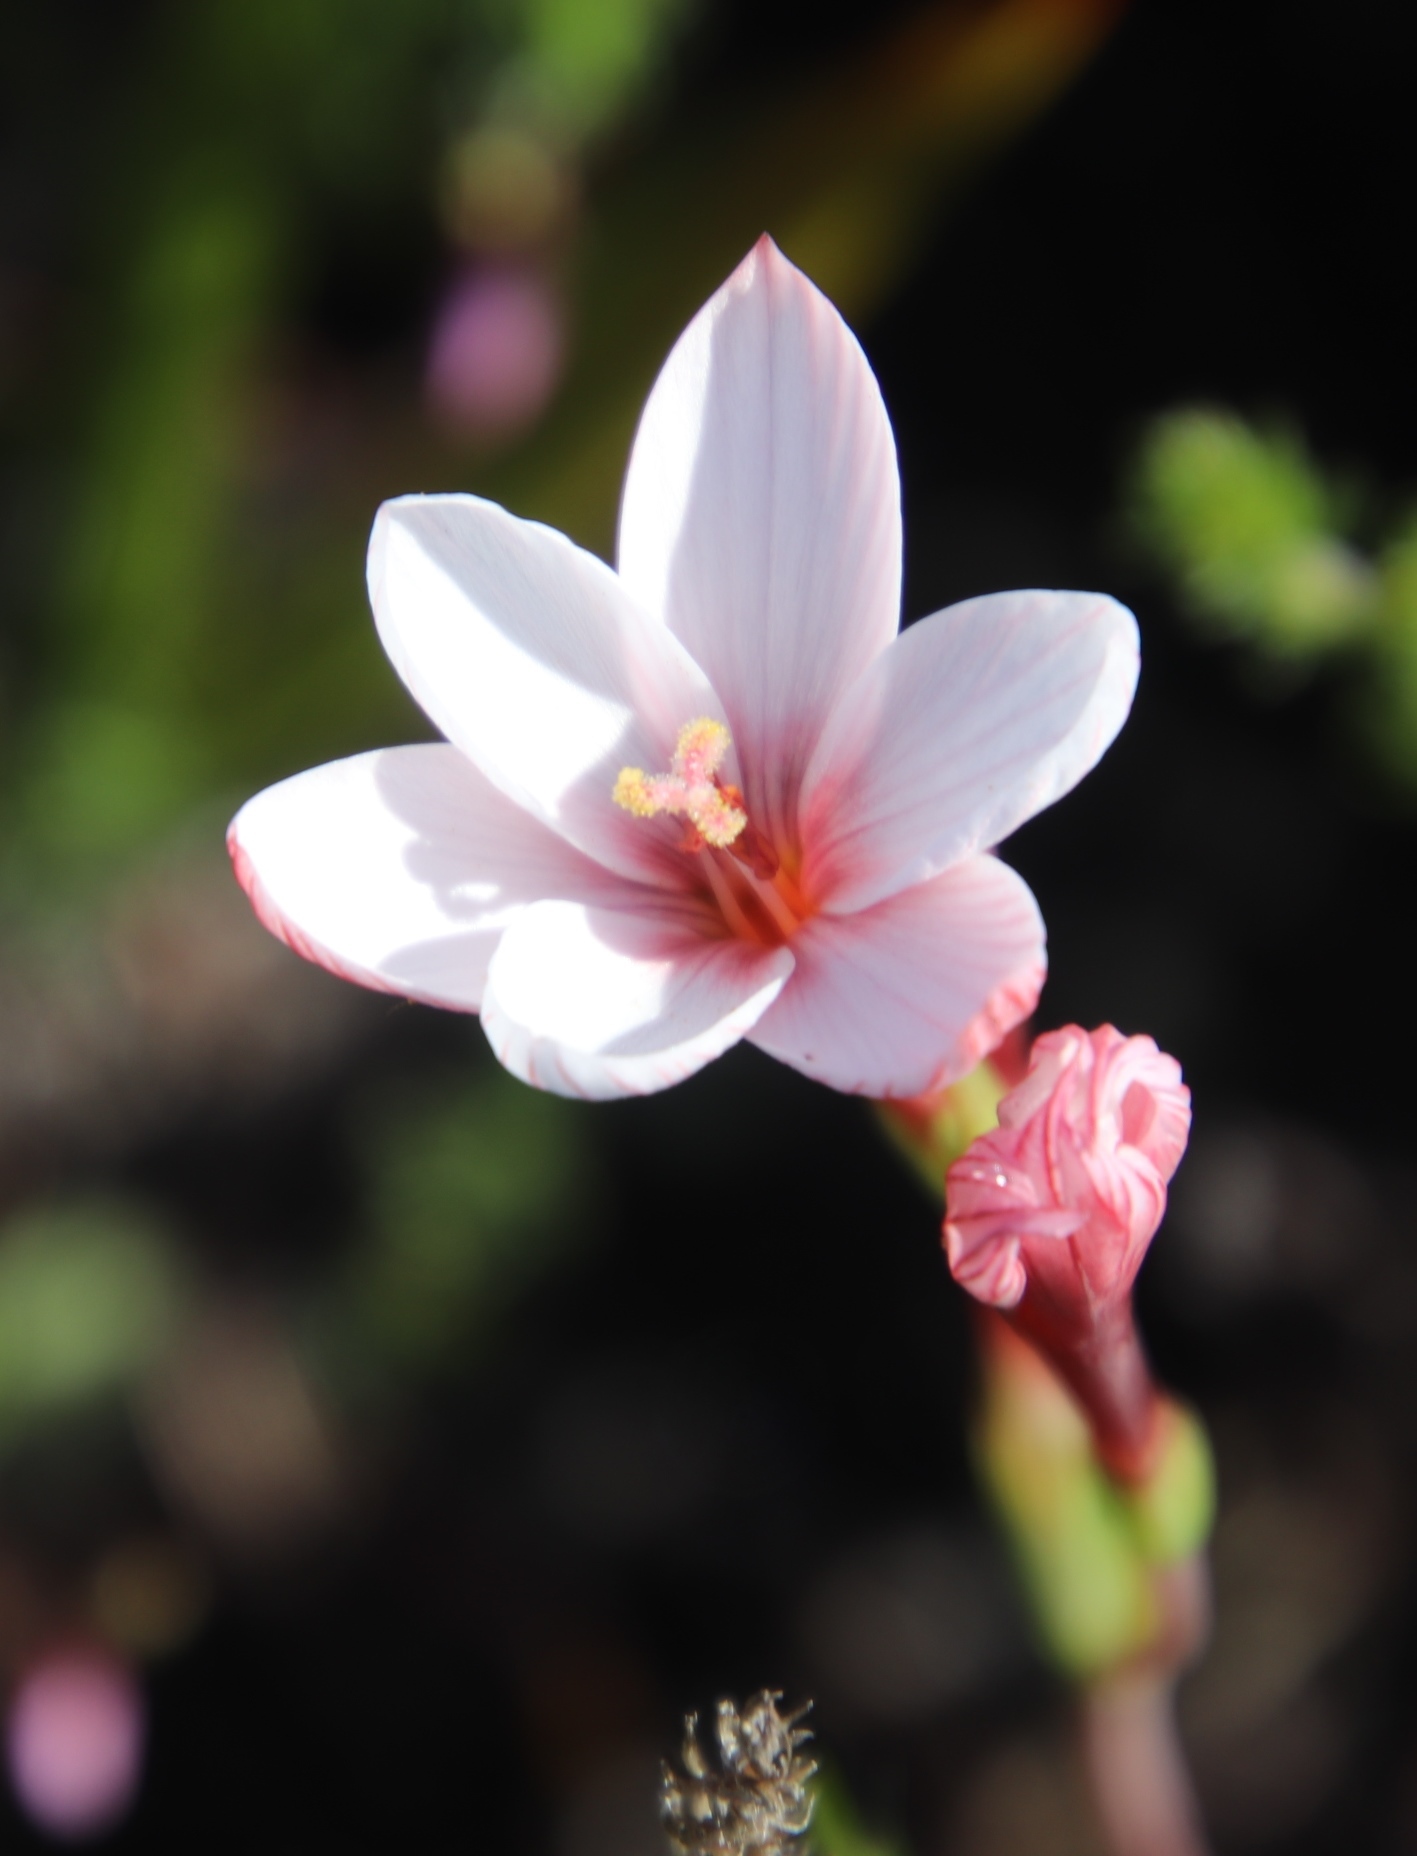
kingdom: Plantae
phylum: Tracheophyta
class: Liliopsida
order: Asparagales
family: Iridaceae
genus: Geissorhiza
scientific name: Geissorhiza ovata
